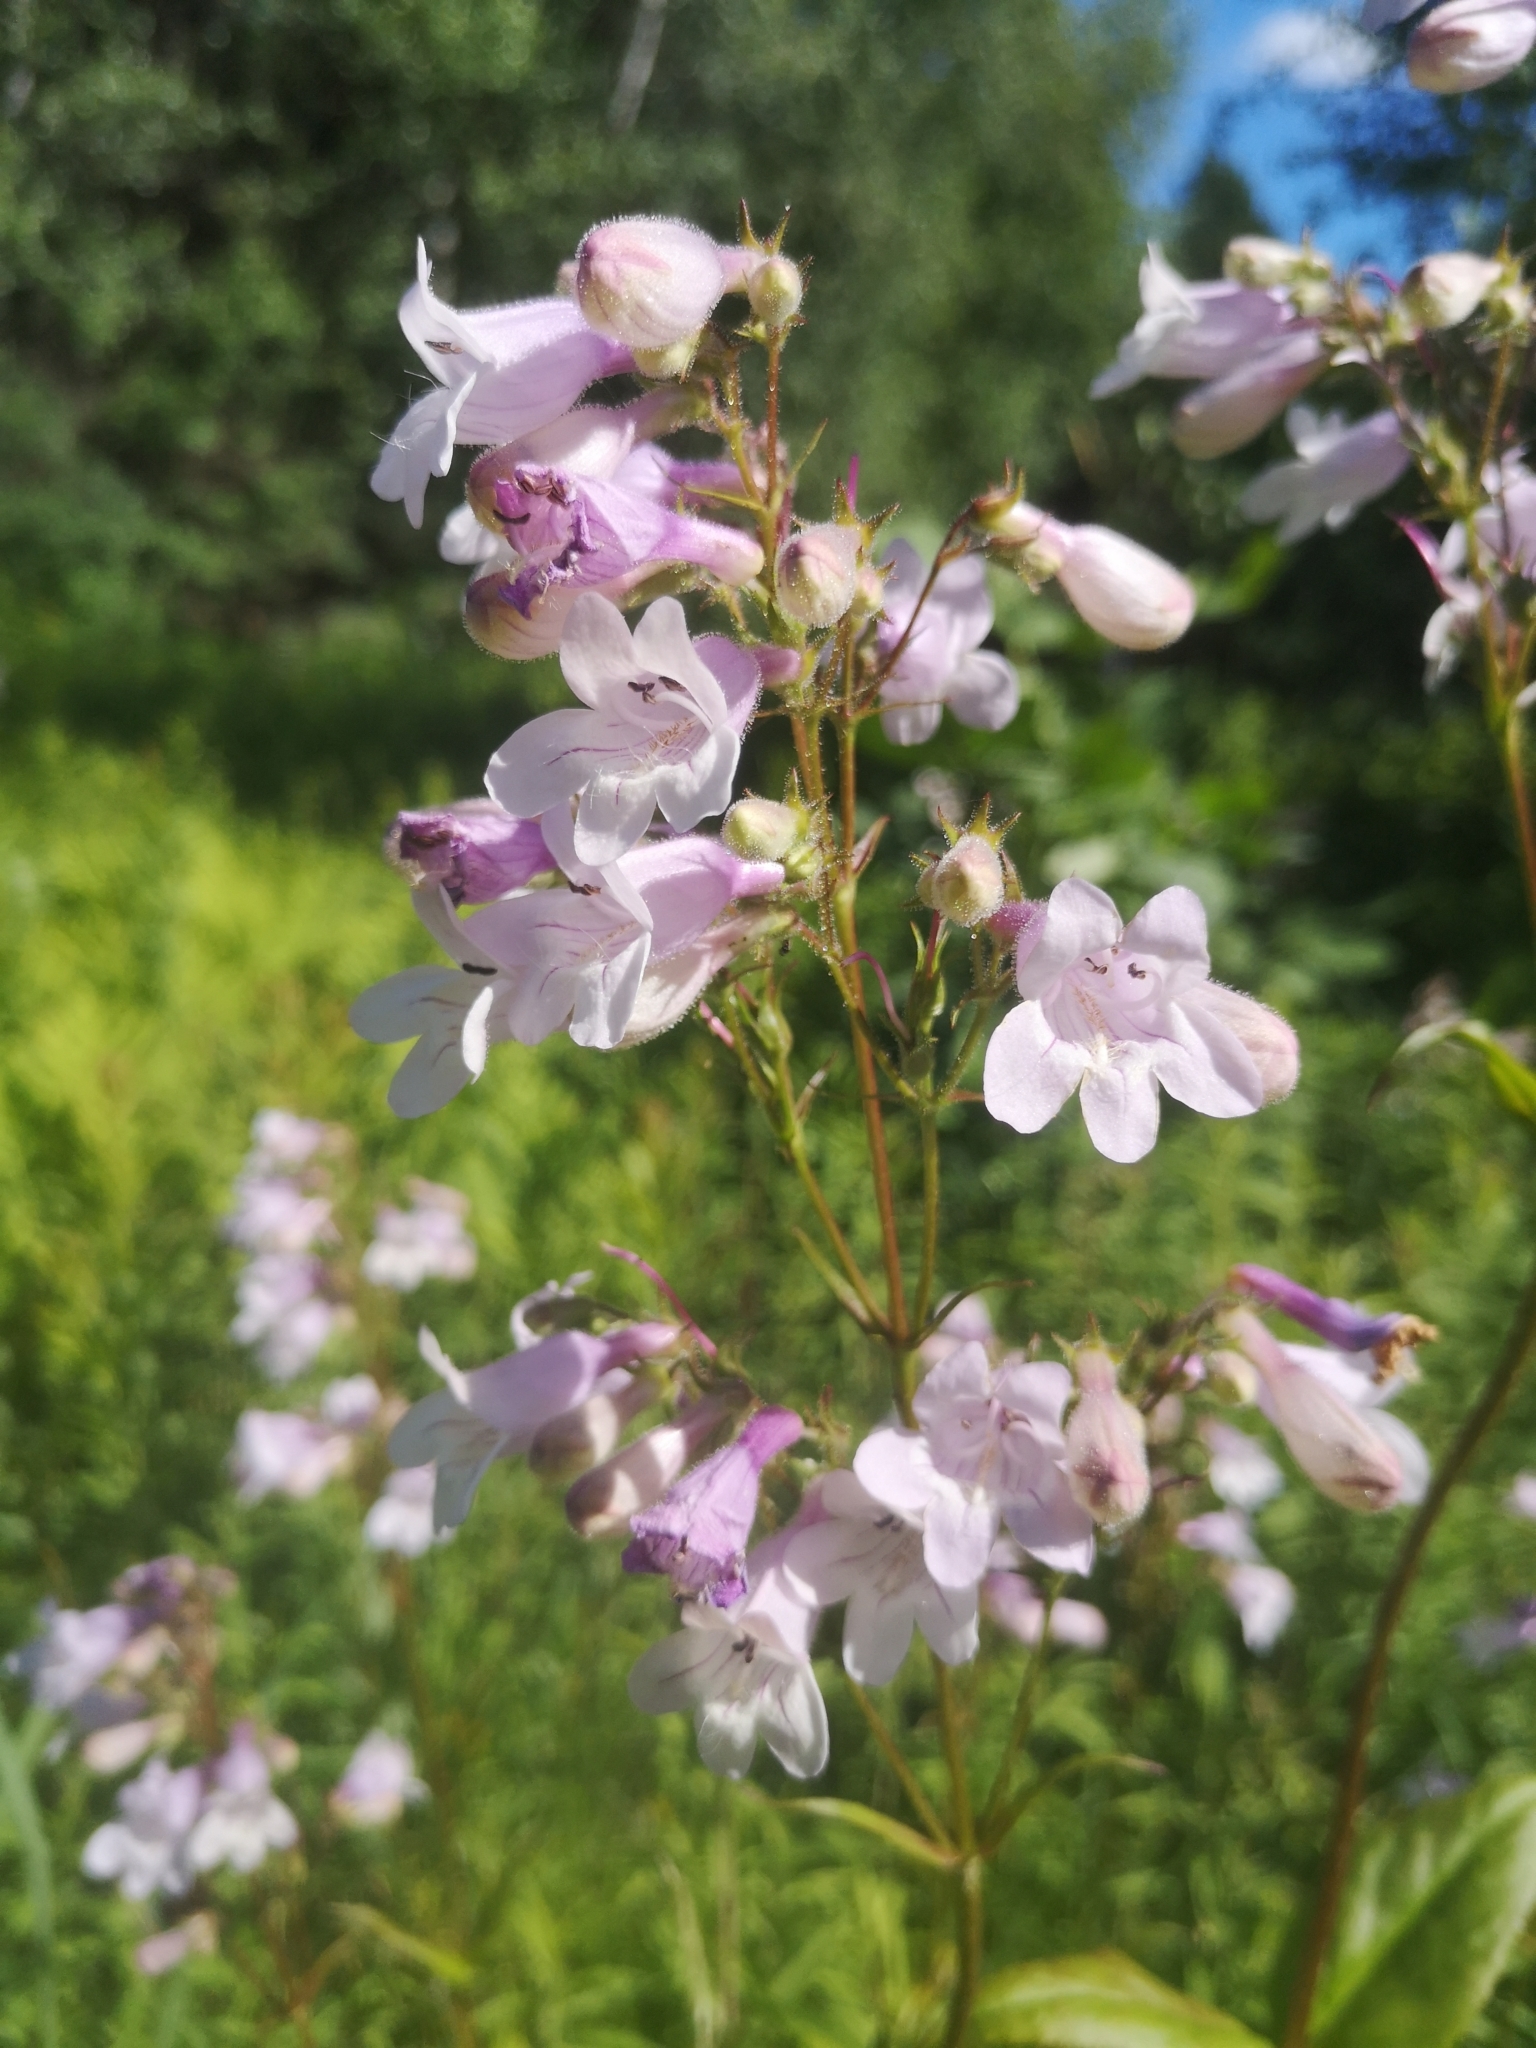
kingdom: Plantae
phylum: Tracheophyta
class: Magnoliopsida
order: Lamiales
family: Plantaginaceae
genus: Penstemon
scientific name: Penstemon digitalis
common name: Foxglove beardtongue
